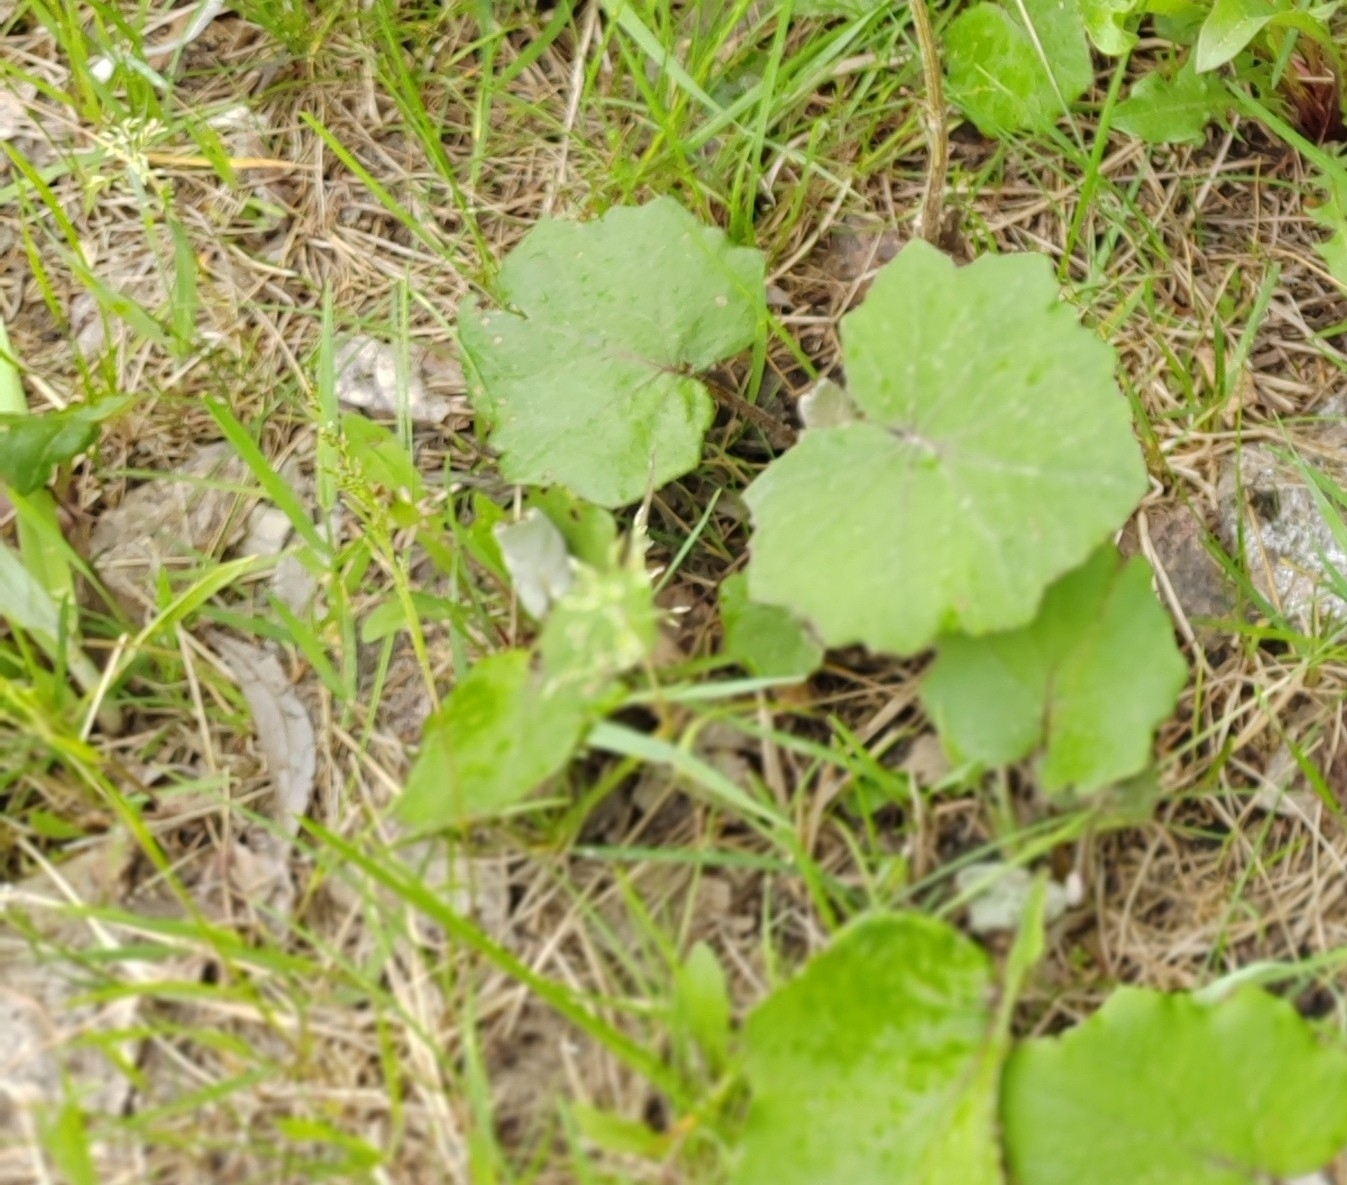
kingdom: Plantae
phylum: Tracheophyta
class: Magnoliopsida
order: Asterales
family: Asteraceae
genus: Tussilago
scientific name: Tussilago farfara
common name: Coltsfoot
